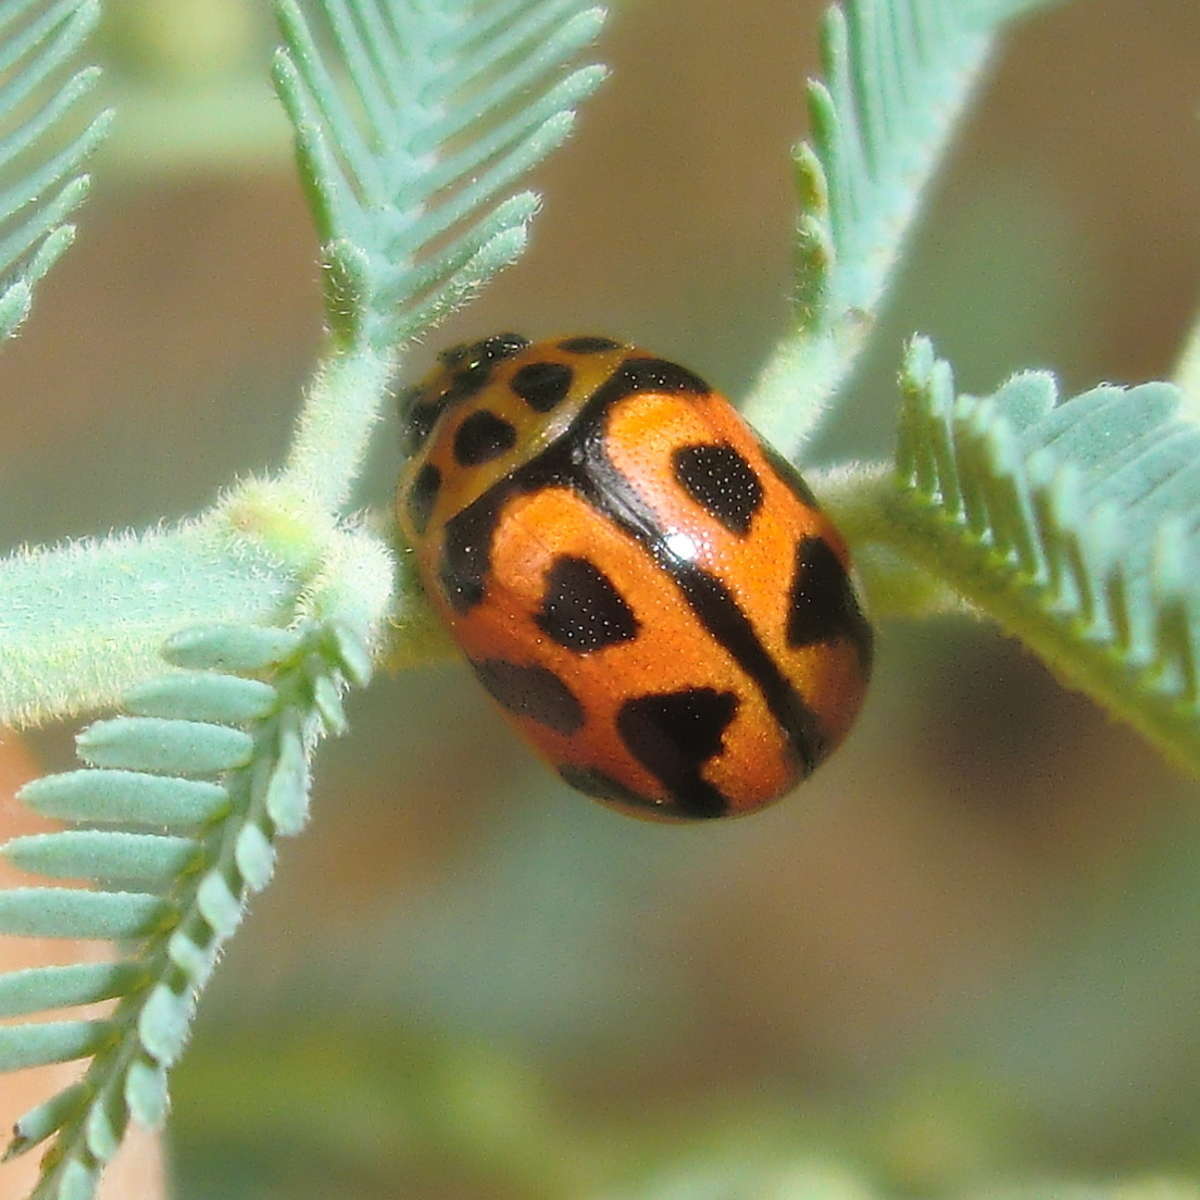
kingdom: Animalia
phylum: Arthropoda
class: Insecta
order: Coleoptera
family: Chrysomelidae
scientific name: Chrysomelidae
